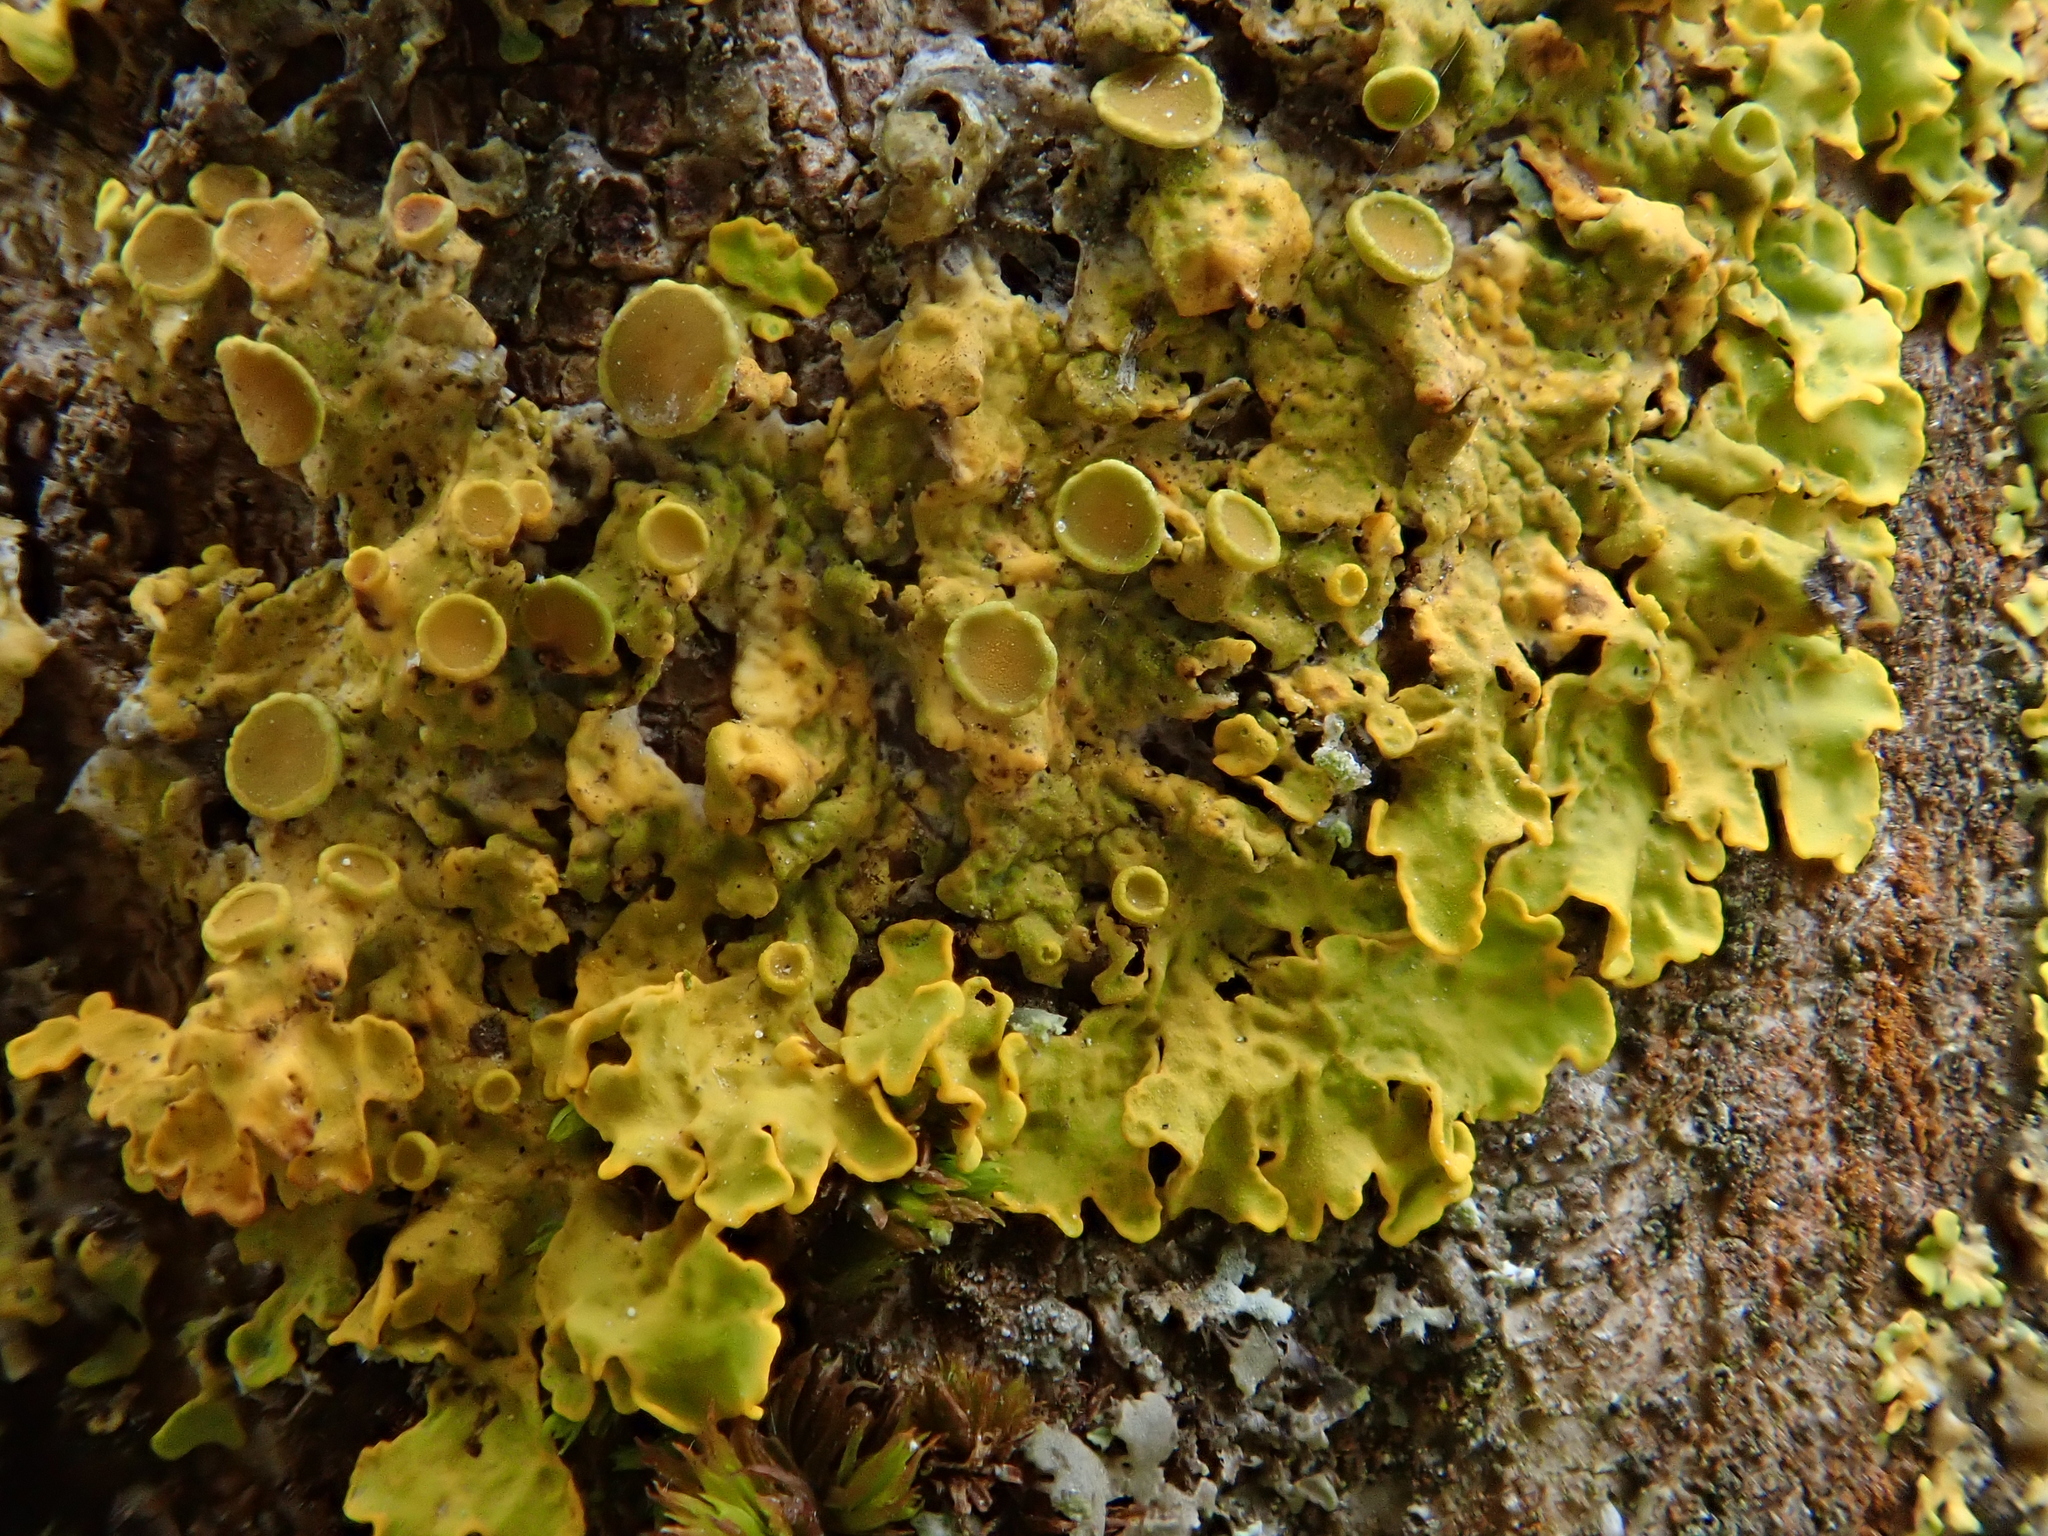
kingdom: Fungi
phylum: Ascomycota
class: Lecanoromycetes
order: Teloschistales
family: Teloschistaceae
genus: Xanthoria
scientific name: Xanthoria parietina
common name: Common orange lichen
